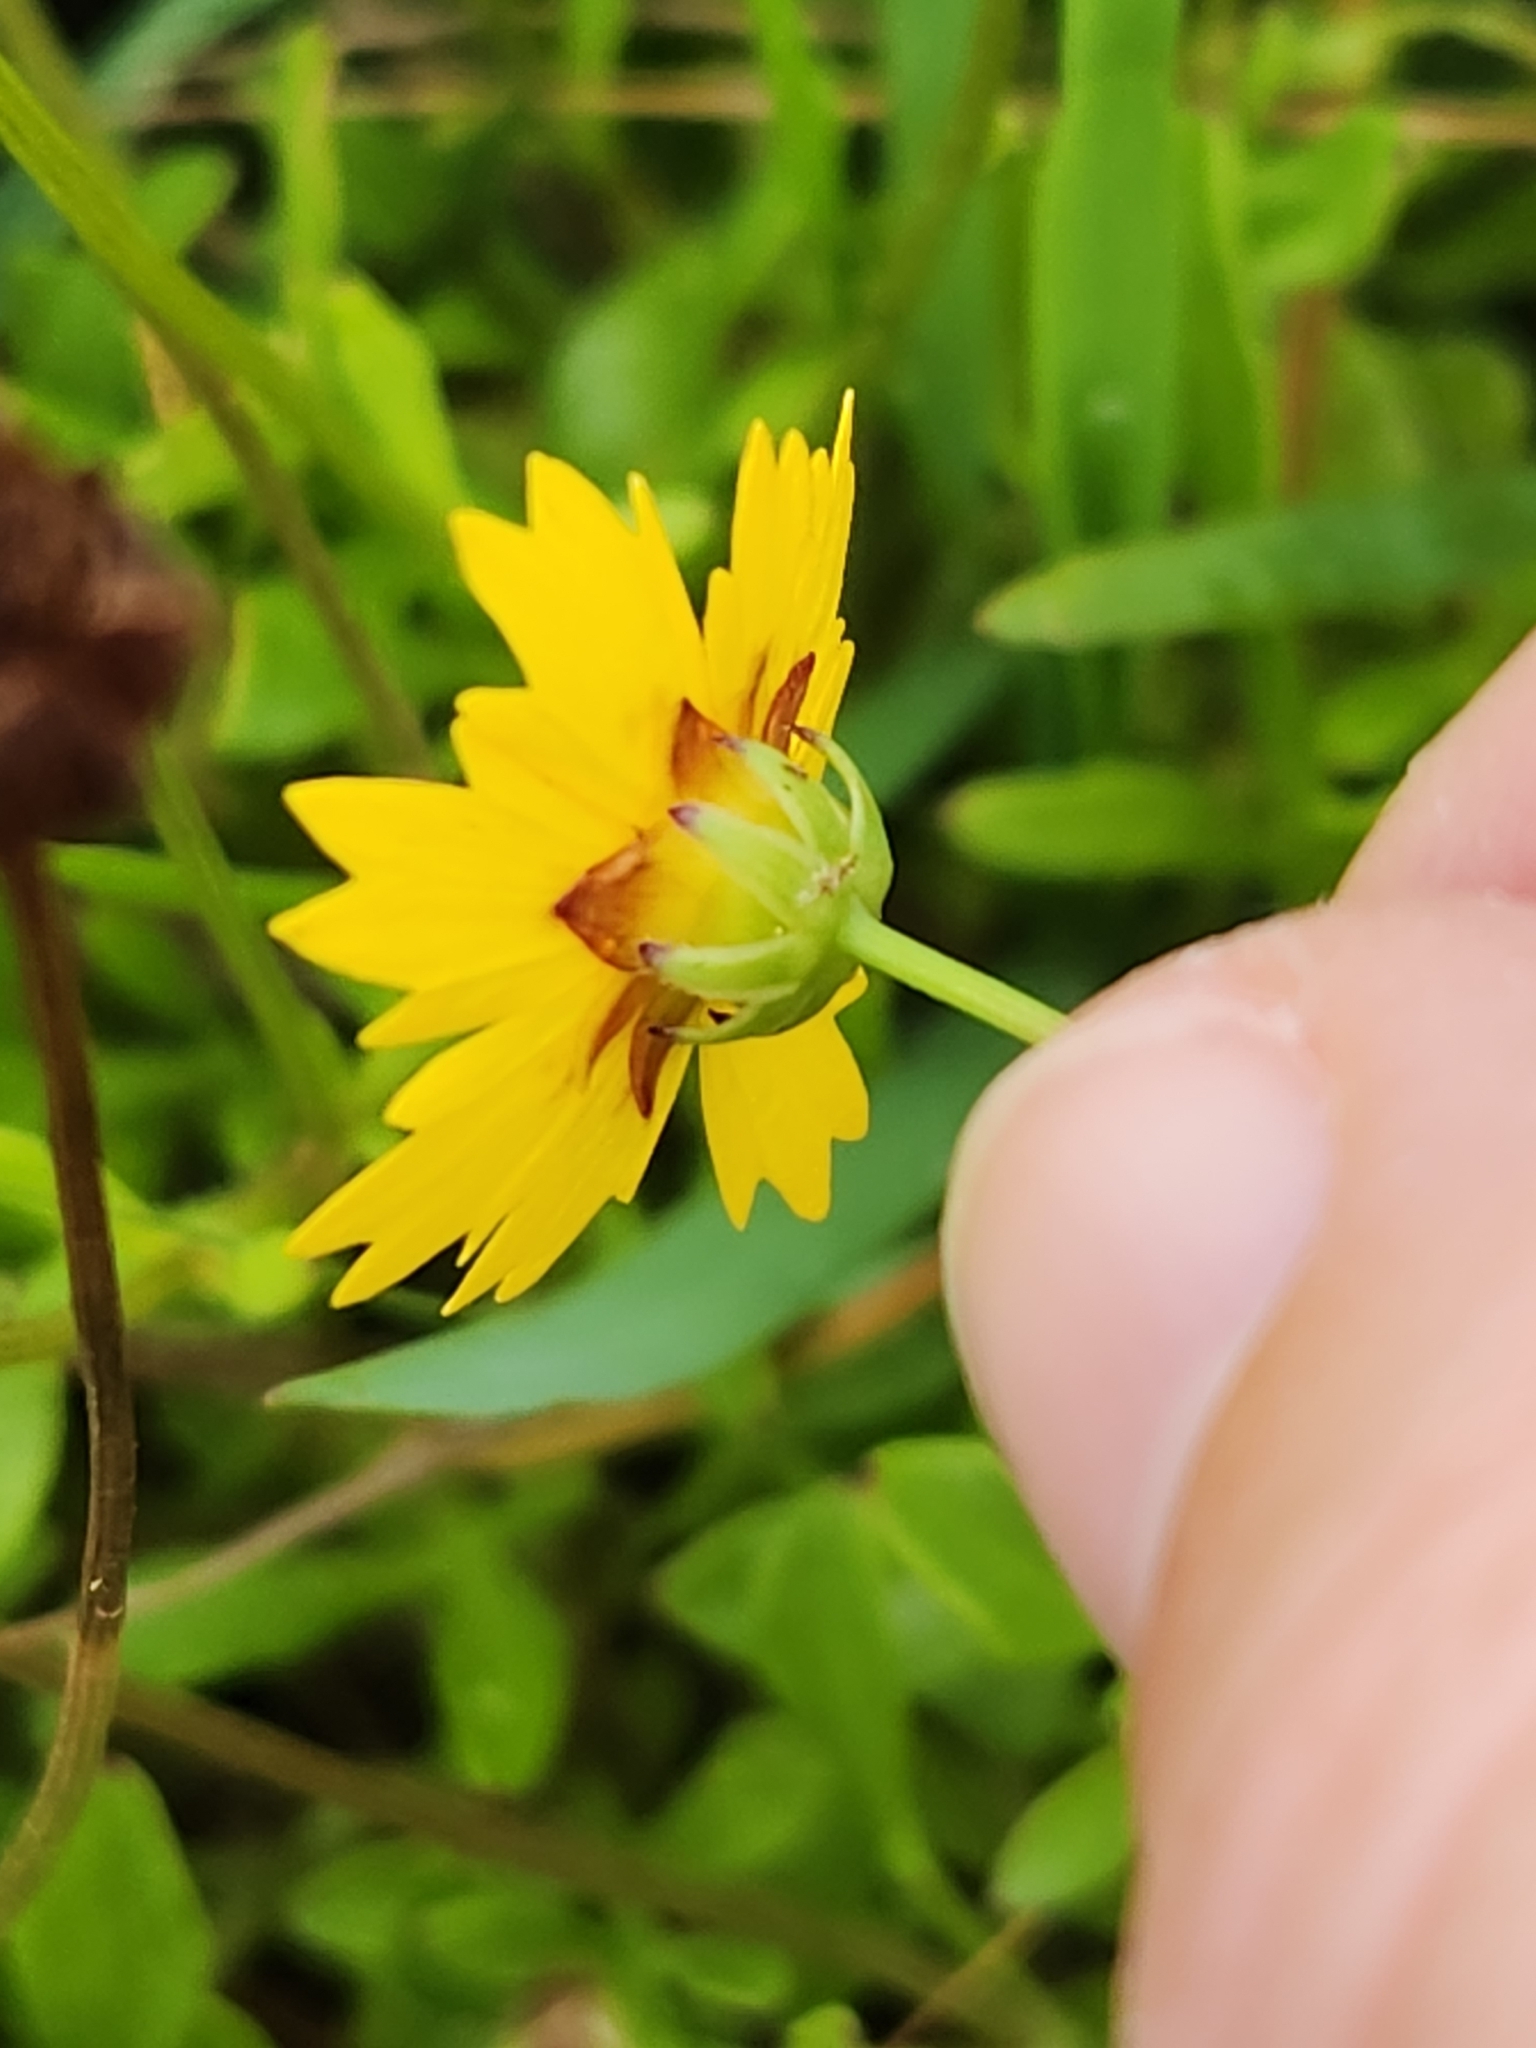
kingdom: Plantae
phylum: Tracheophyta
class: Magnoliopsida
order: Asterales
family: Asteraceae
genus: Coreopsis
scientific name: Coreopsis nuecensis
